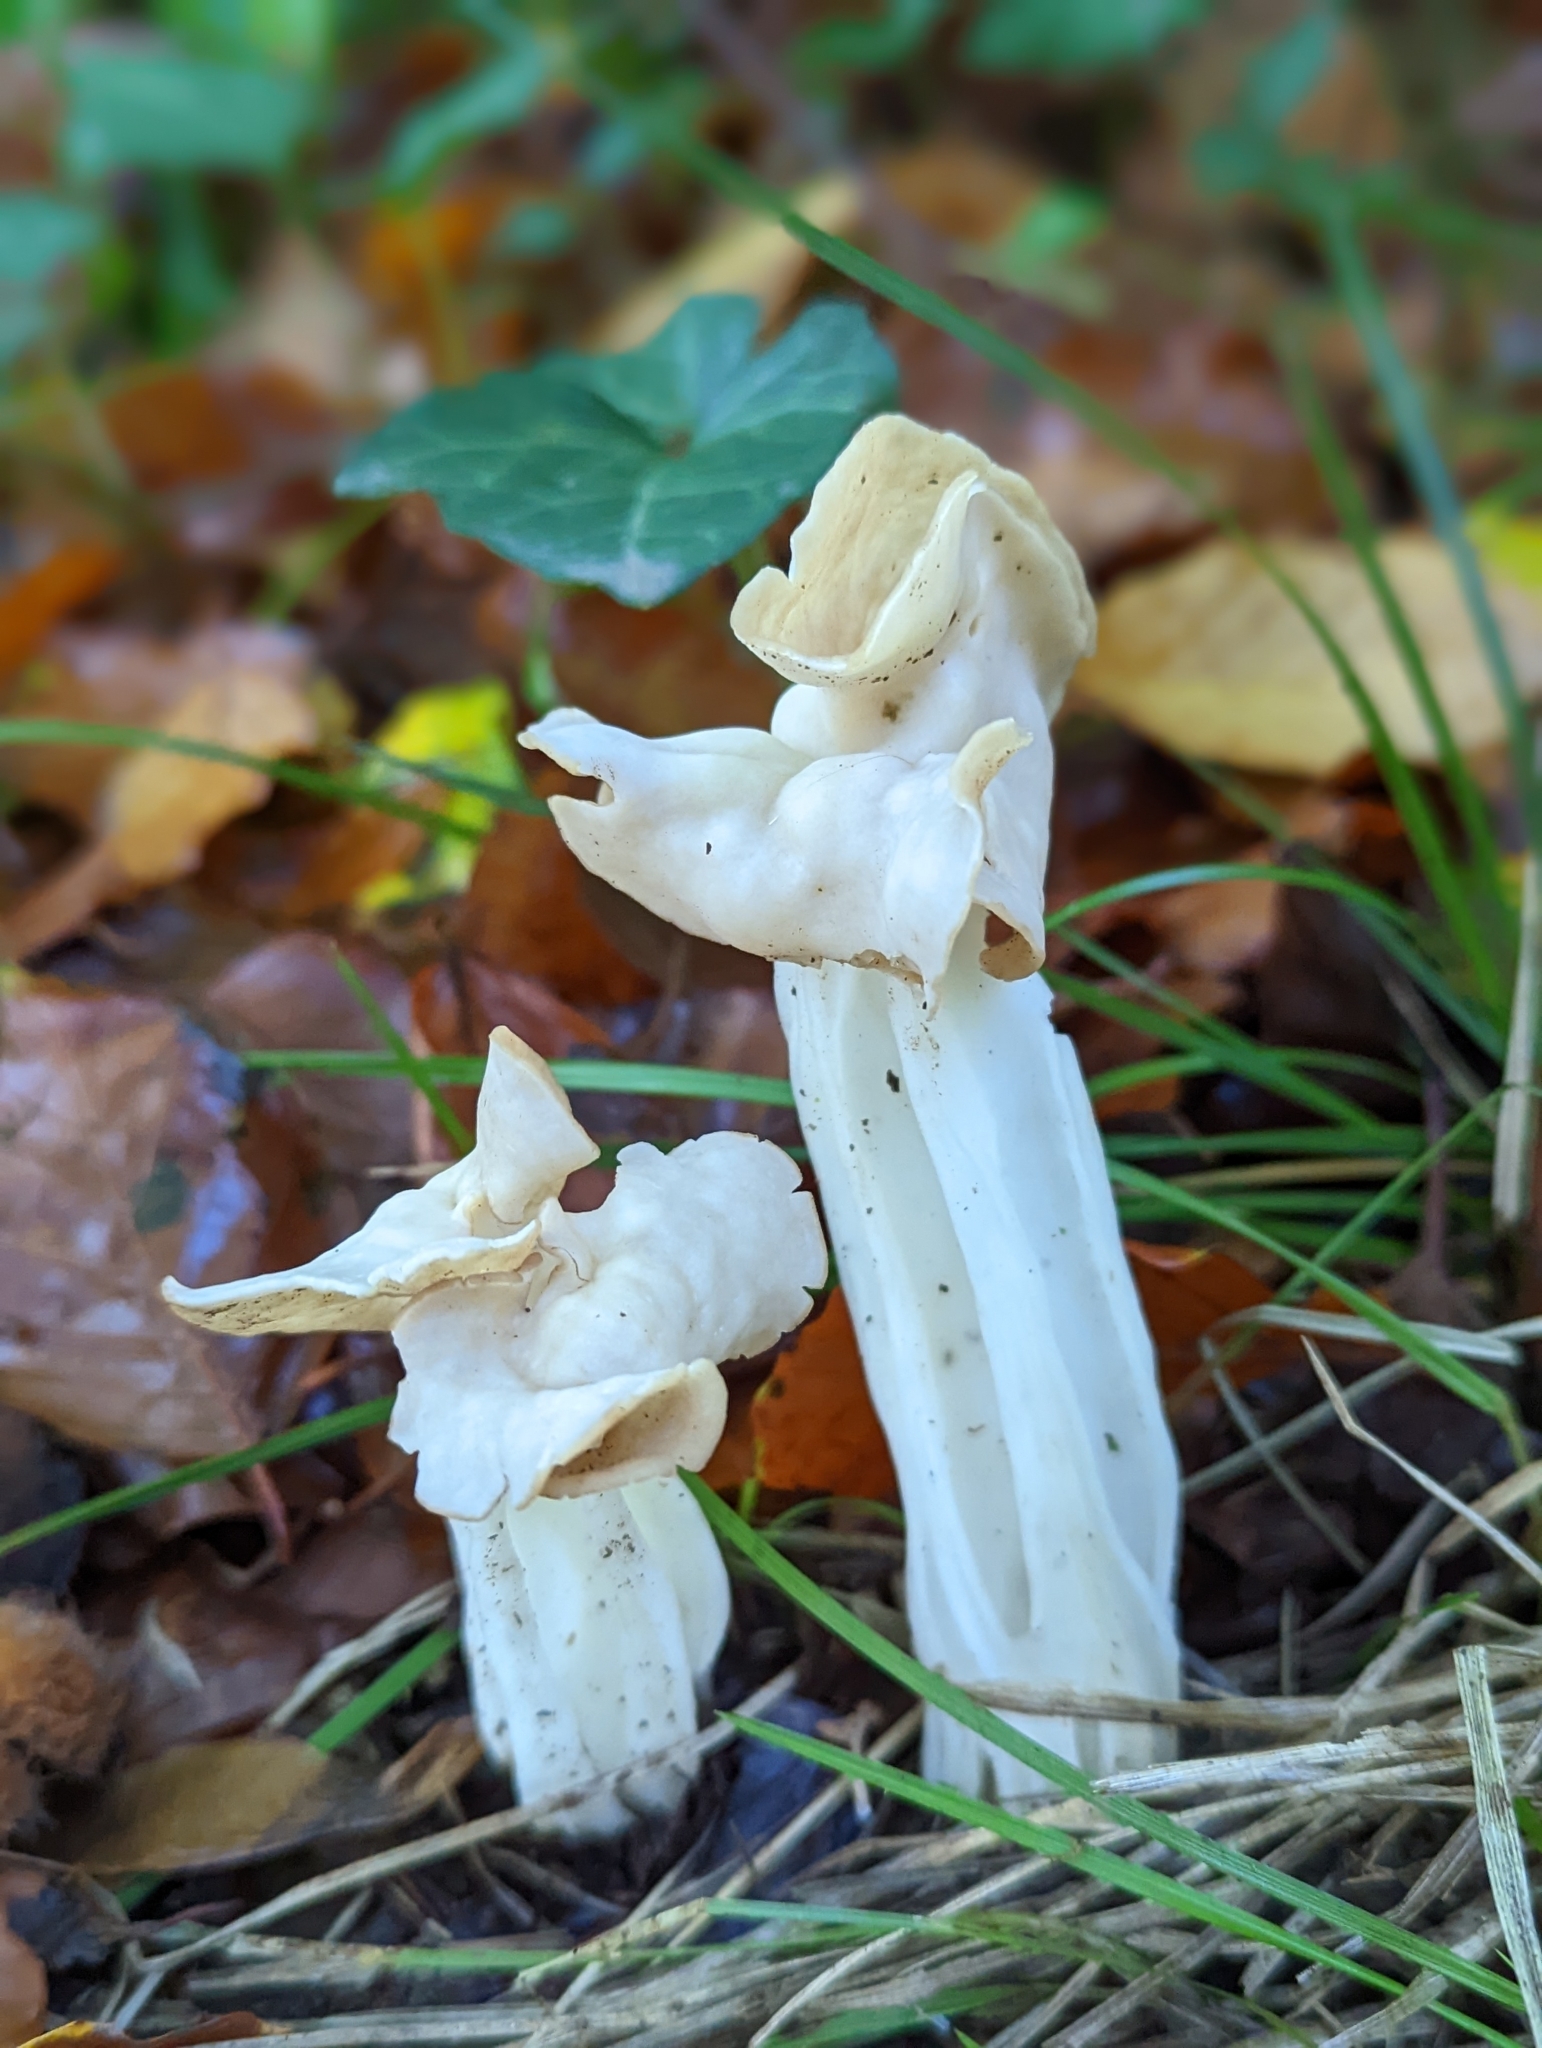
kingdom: Fungi
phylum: Ascomycota
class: Pezizomycetes
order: Pezizales
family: Helvellaceae
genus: Helvella
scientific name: Helvella crispa
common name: White saddle
